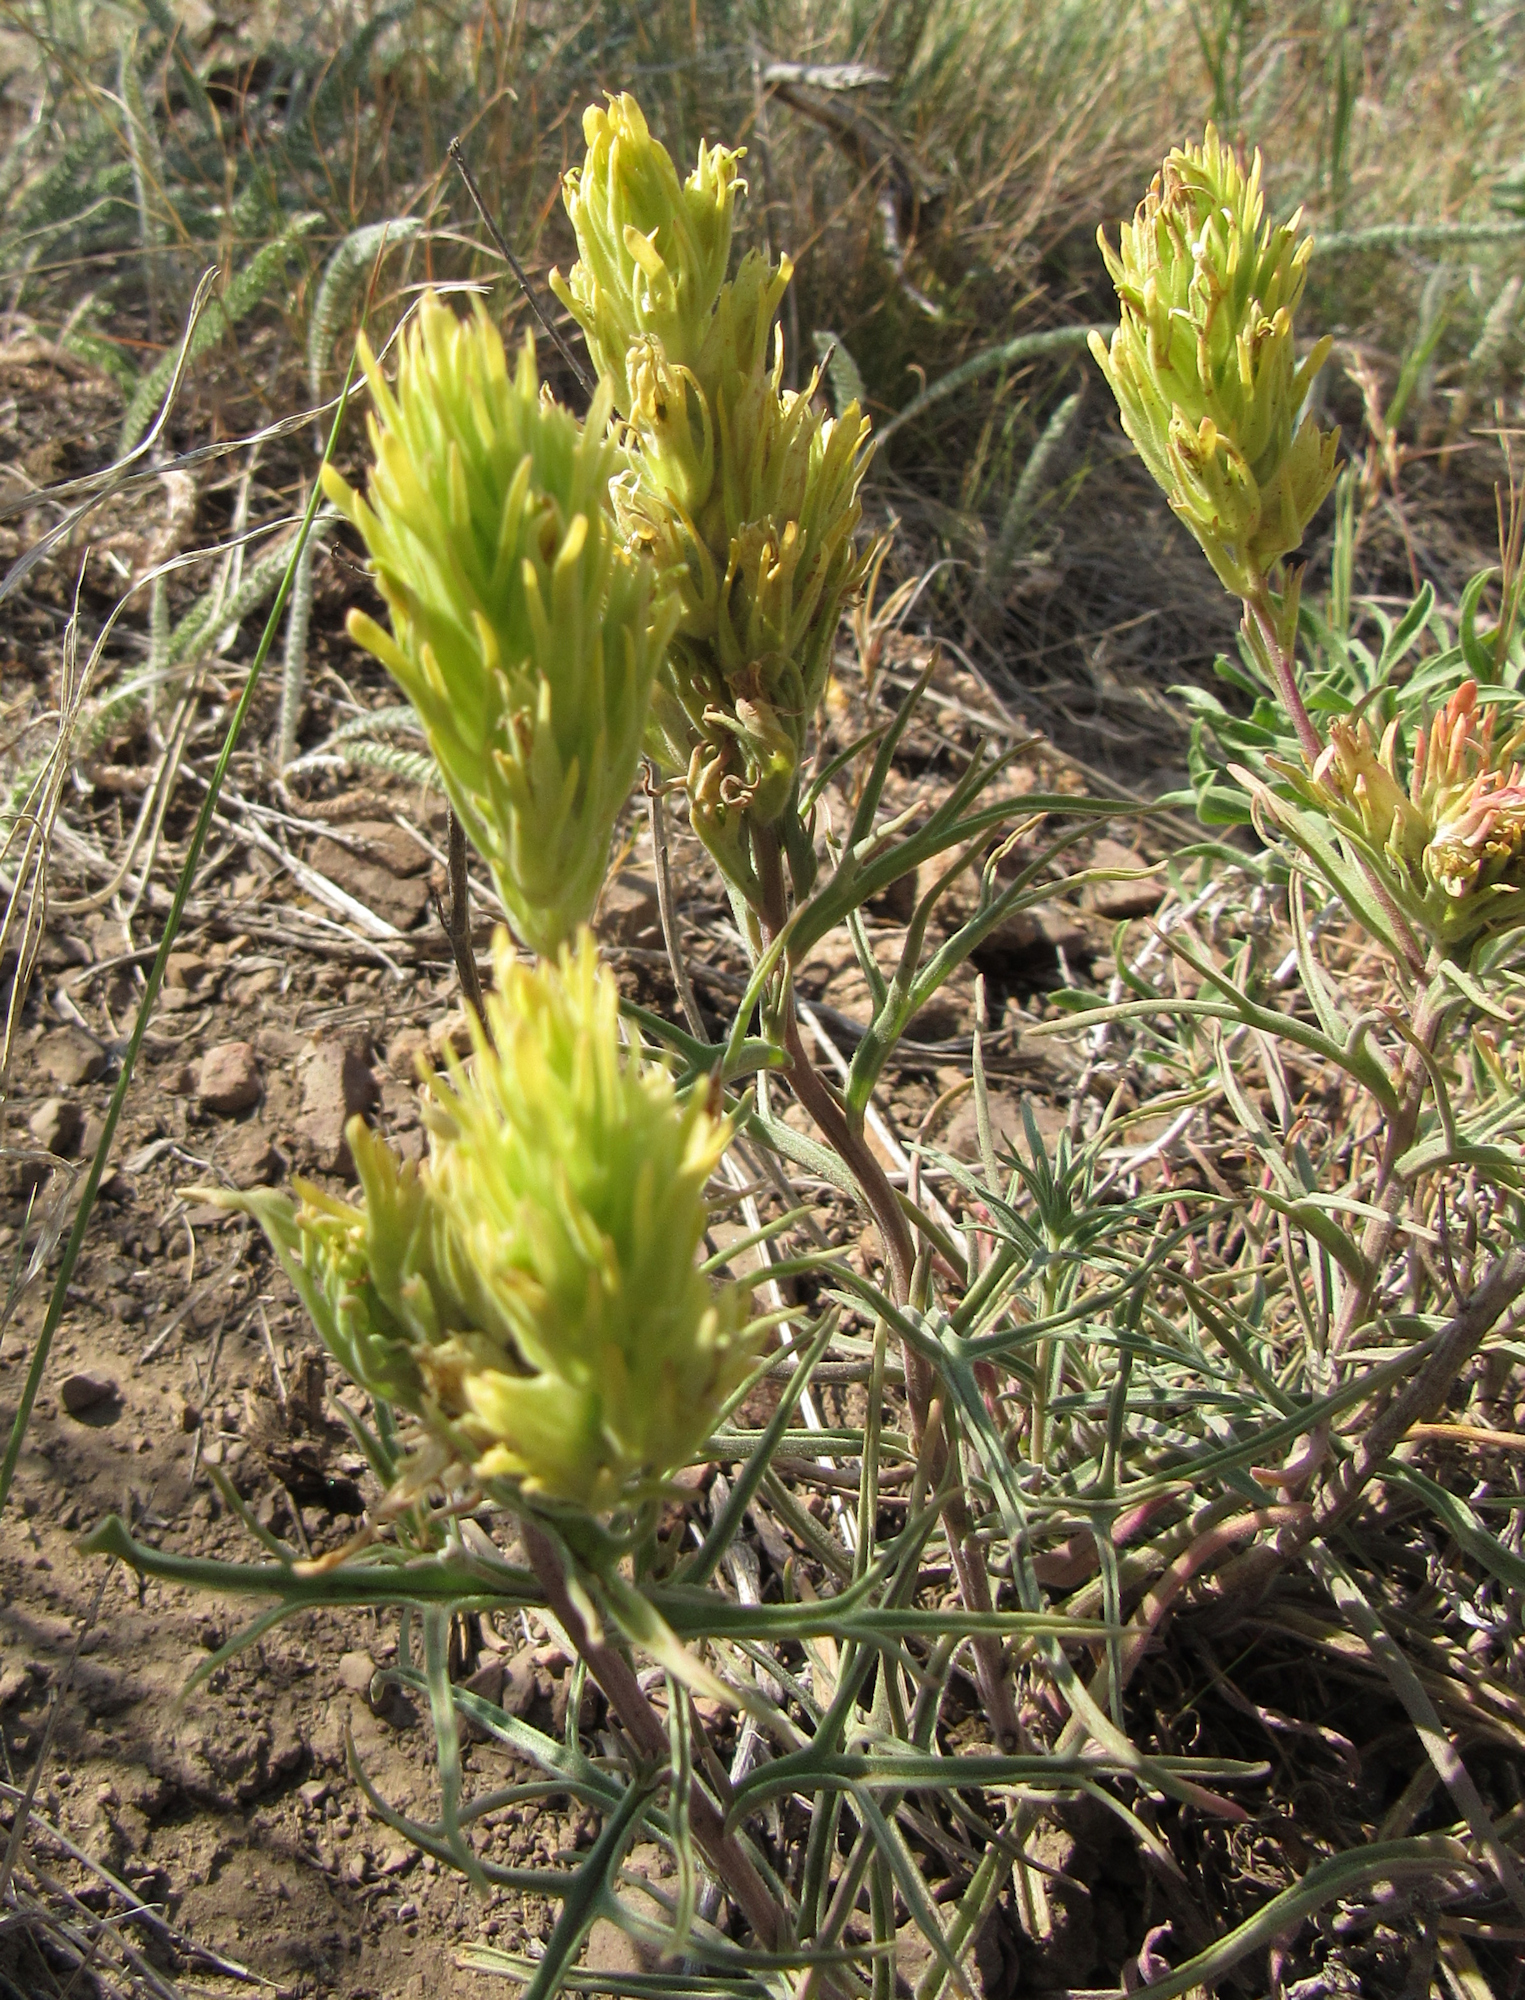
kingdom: Plantae
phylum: Tracheophyta
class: Magnoliopsida
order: Lamiales
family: Orobanchaceae
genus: Castilleja
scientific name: Castilleja flava
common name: Yellow paintbrush
